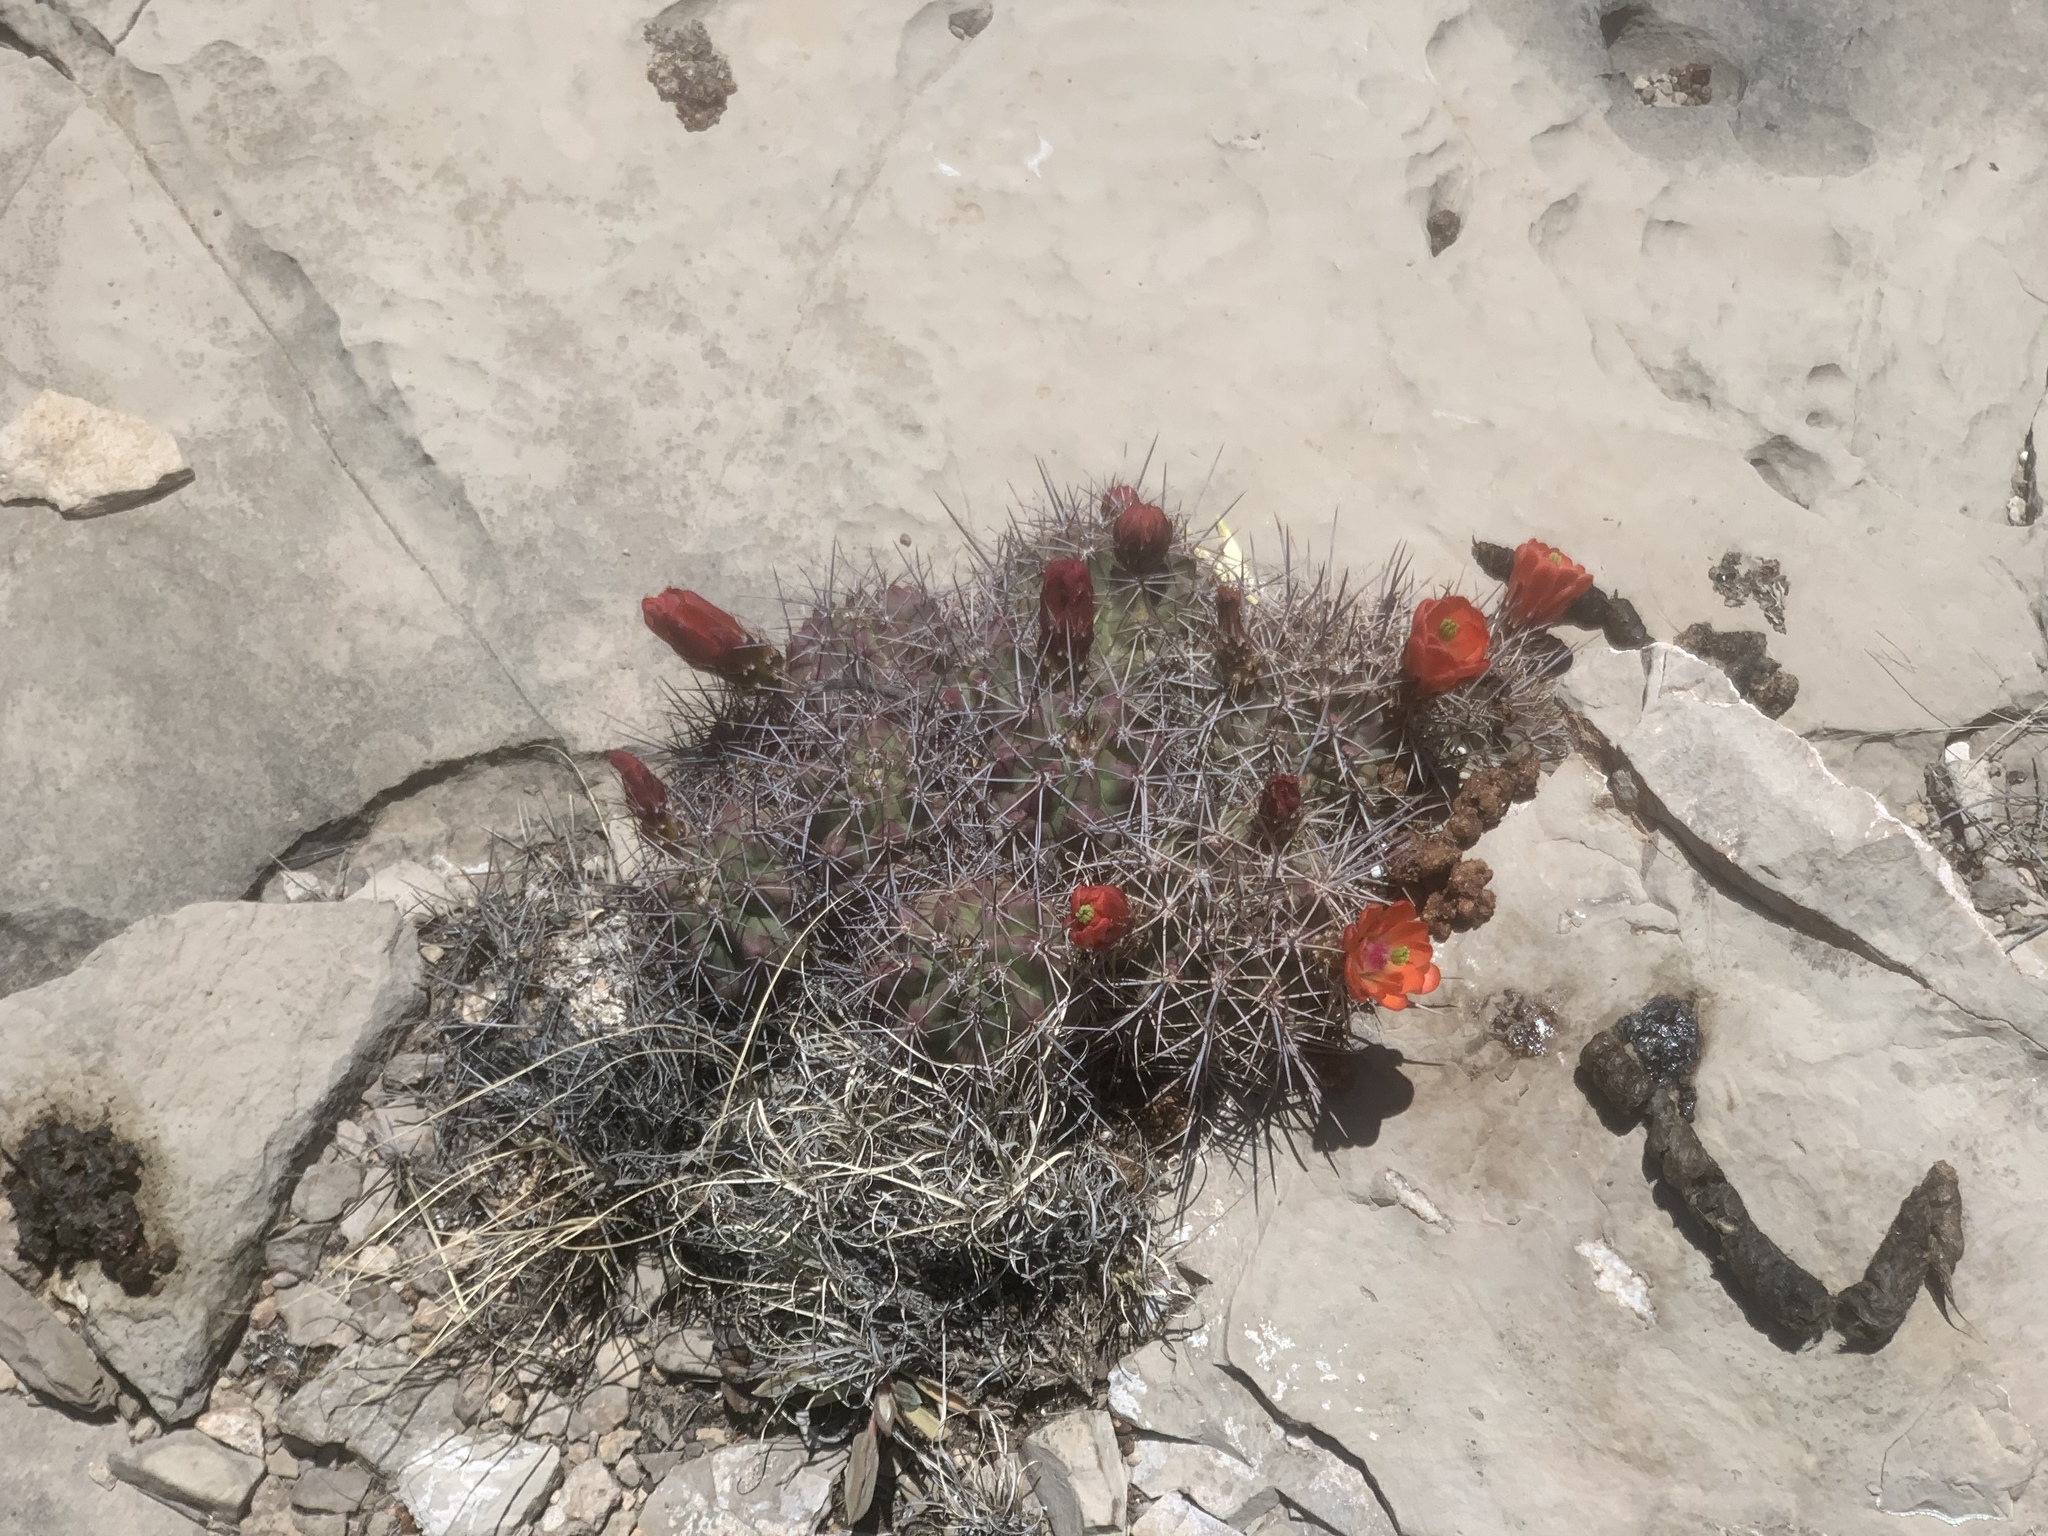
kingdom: Plantae
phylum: Tracheophyta
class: Magnoliopsida
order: Caryophyllales
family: Cactaceae
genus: Echinocereus
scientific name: Echinocereus coccineus
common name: Scarlet hedgehog cactus
